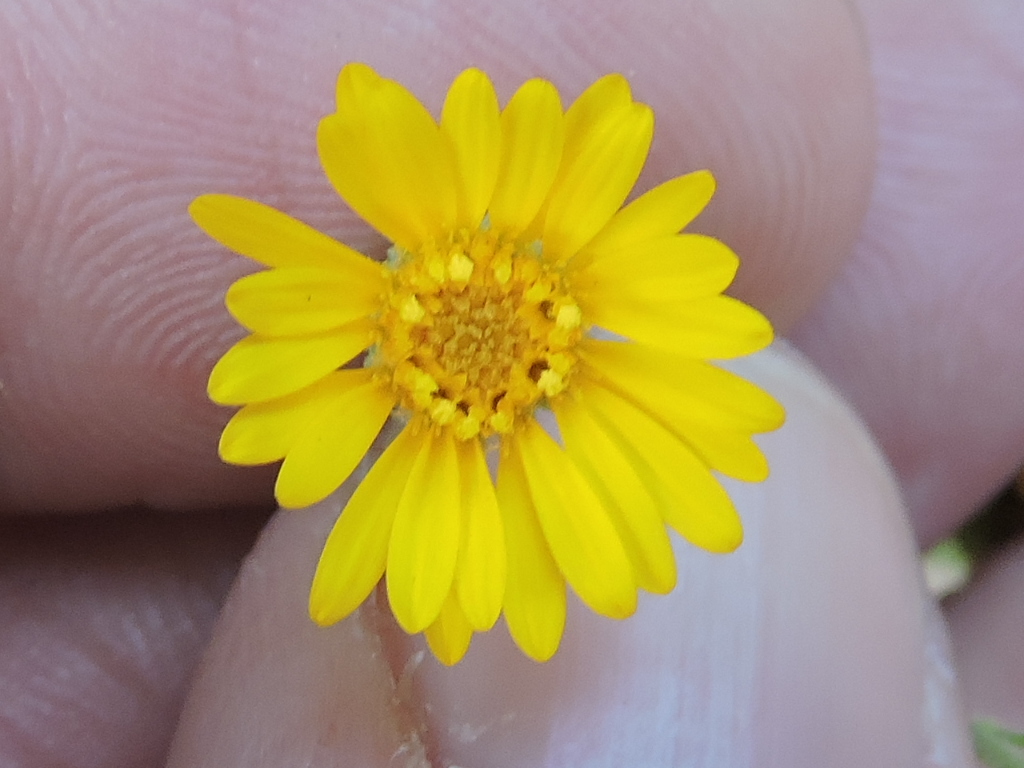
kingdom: Plantae
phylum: Tracheophyta
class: Magnoliopsida
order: Asterales
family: Asteraceae
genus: Heterotheca
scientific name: Heterotheca subaxillaris
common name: Camphorweed
